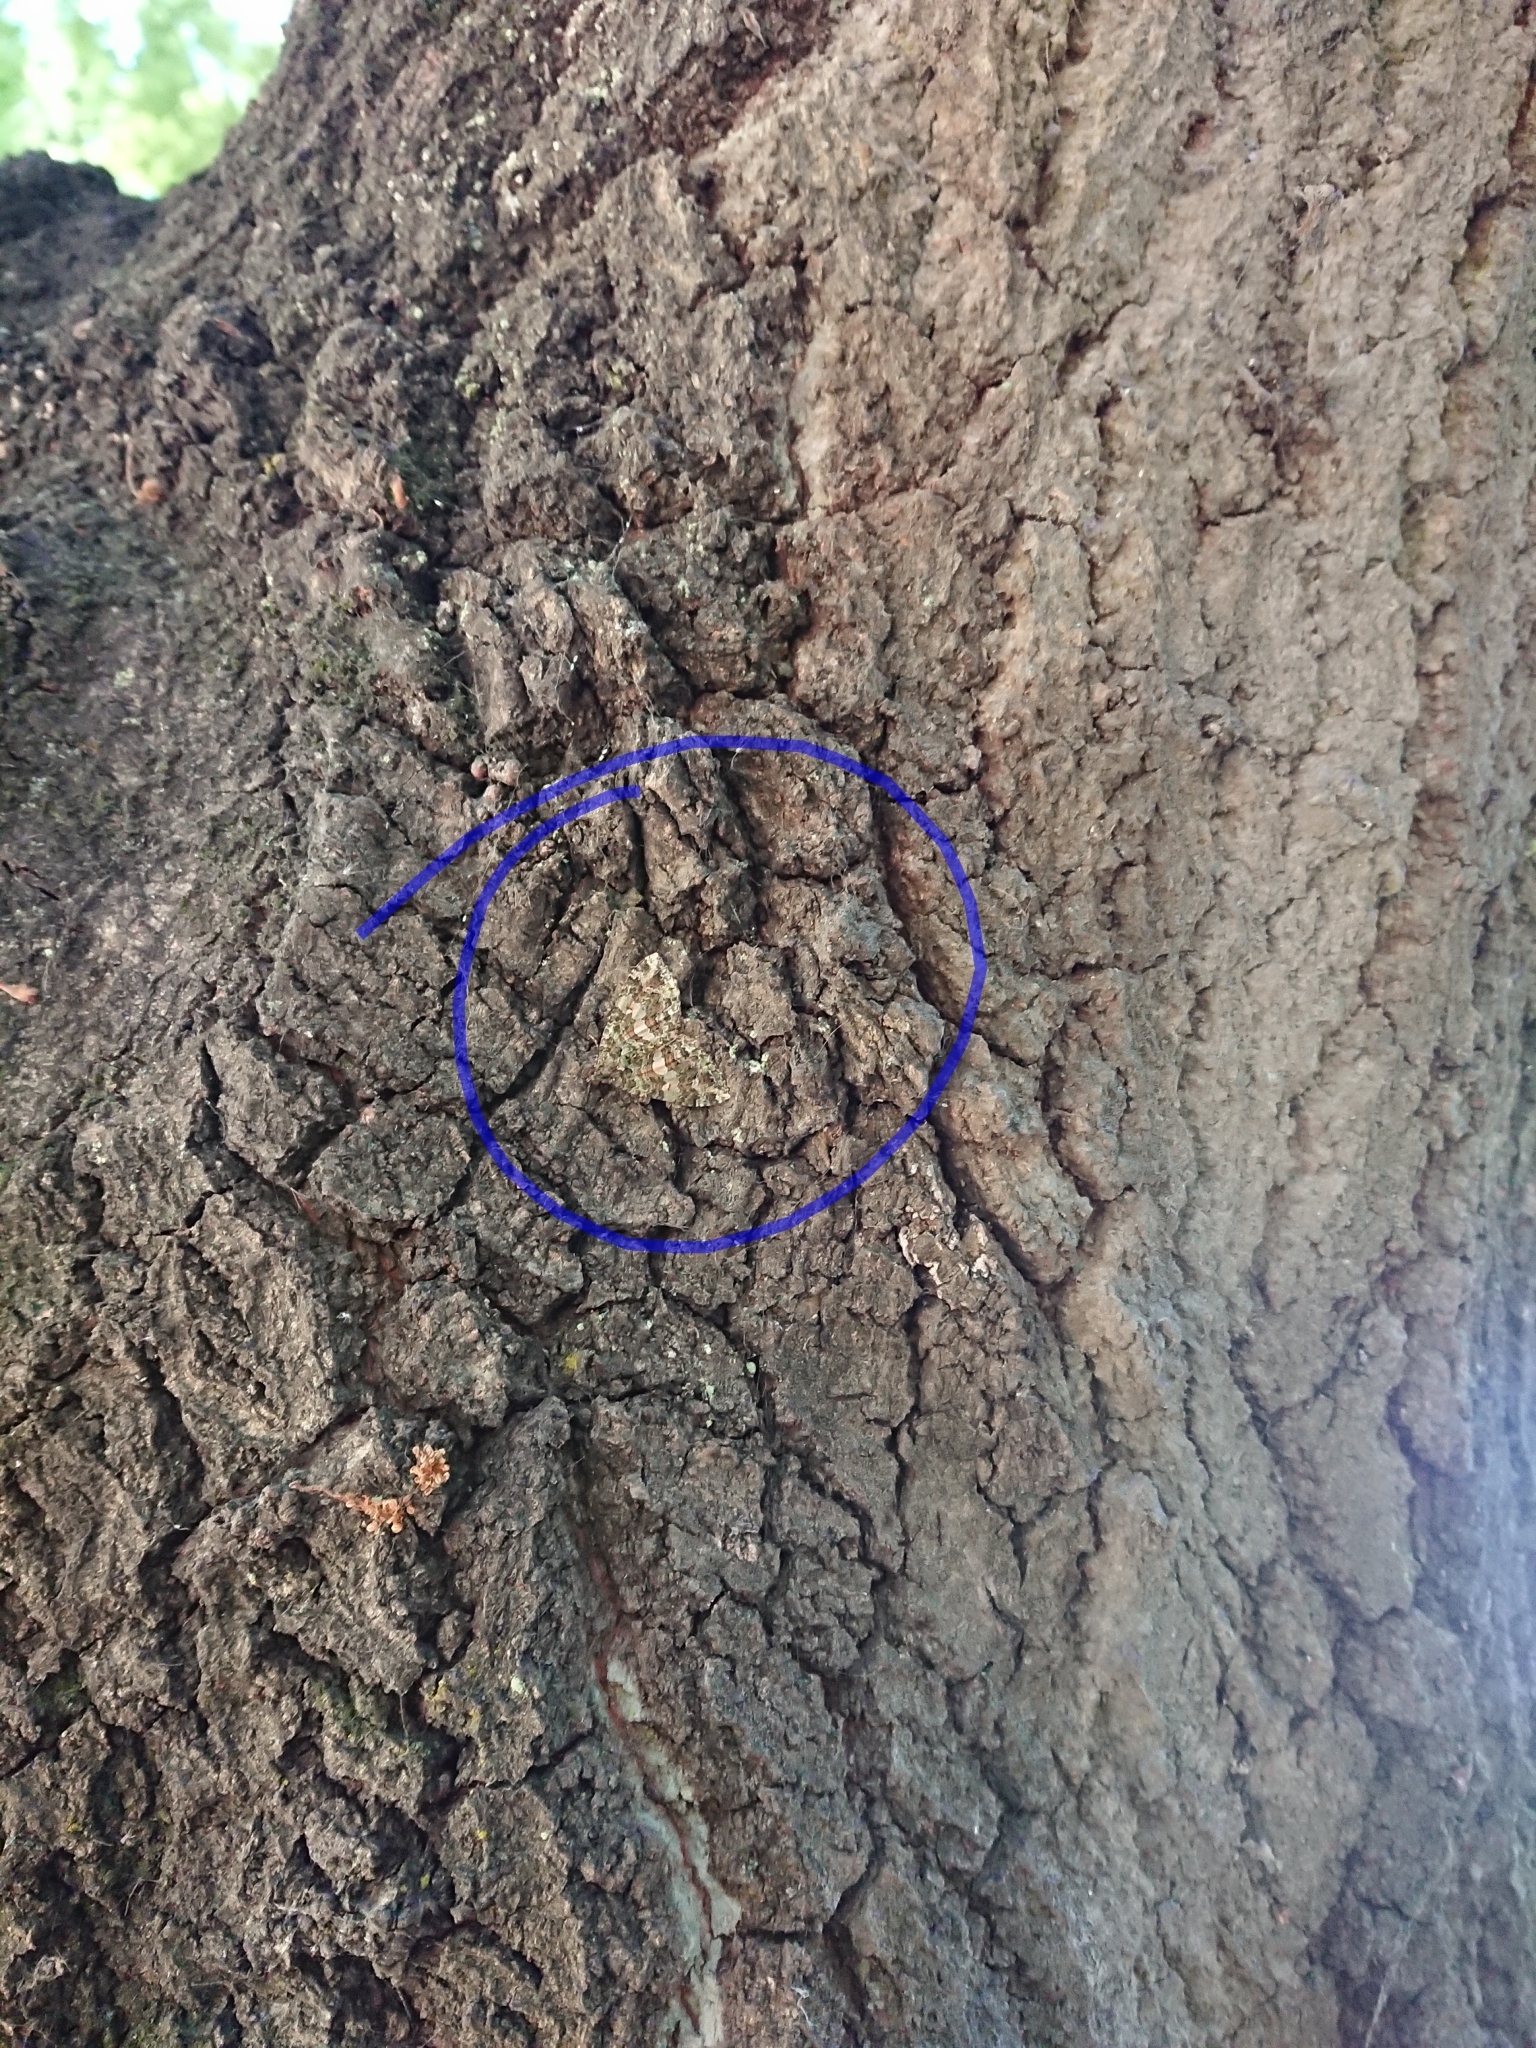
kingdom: Animalia
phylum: Arthropoda
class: Insecta
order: Lepidoptera
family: Geometridae
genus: Austrocidaria
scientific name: Austrocidaria similata
